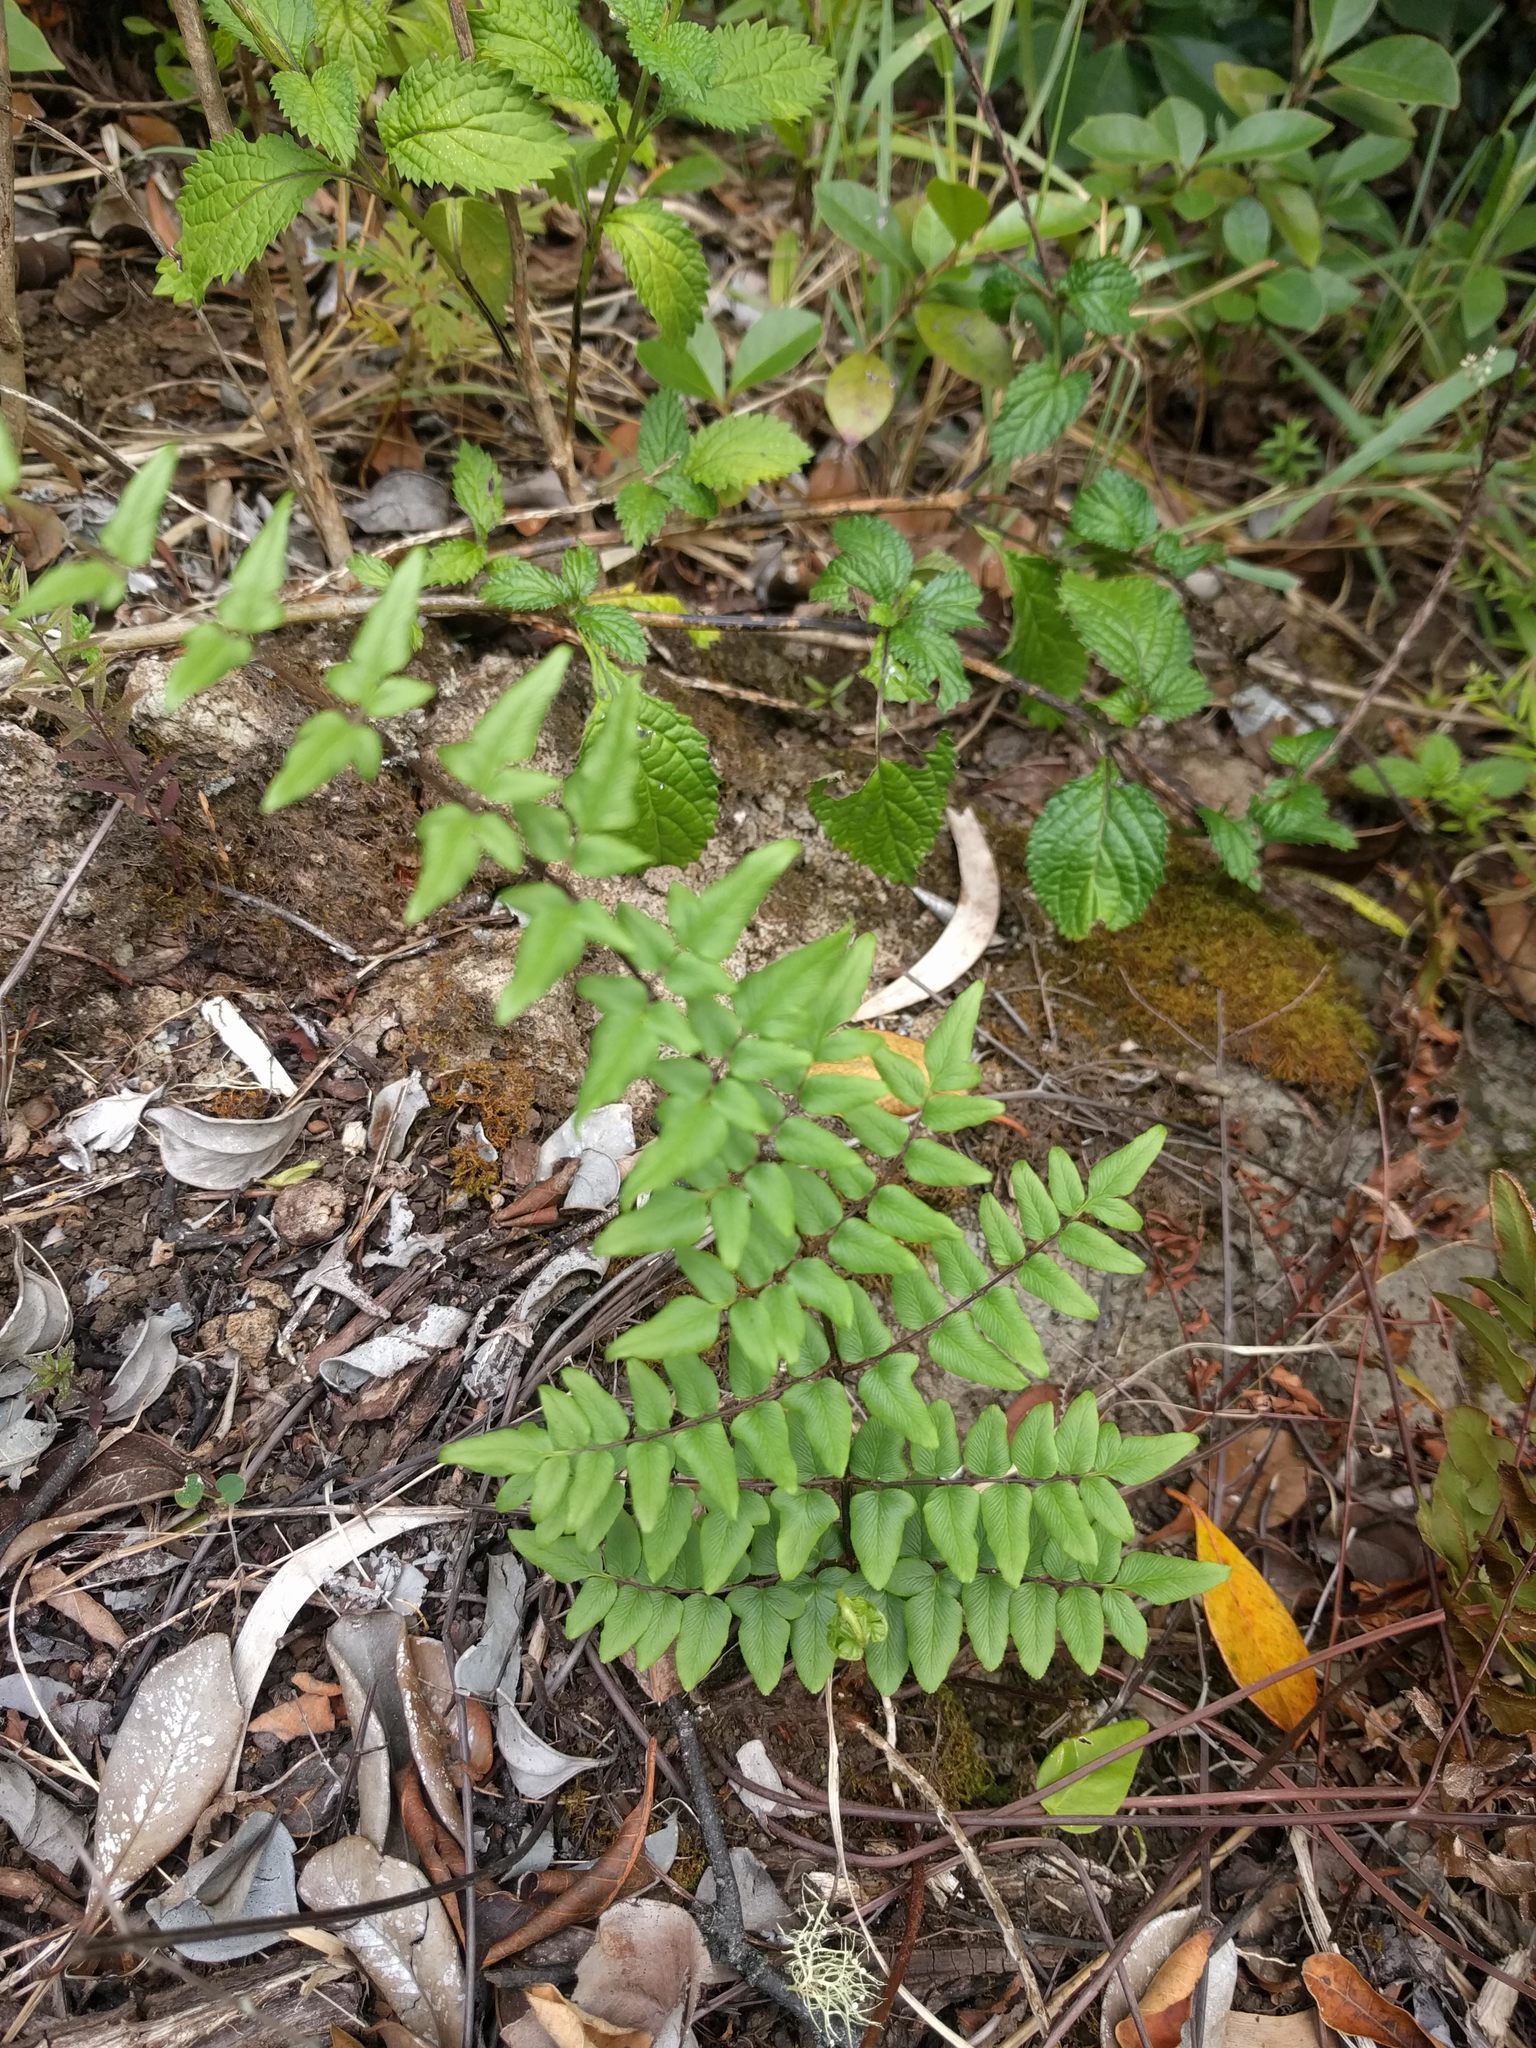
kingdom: Plantae
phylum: Tracheophyta
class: Polypodiopsida
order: Polypodiales
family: Pteridaceae
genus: Cheilanthes
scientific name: Cheilanthes viridis
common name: Green cliffbrake
